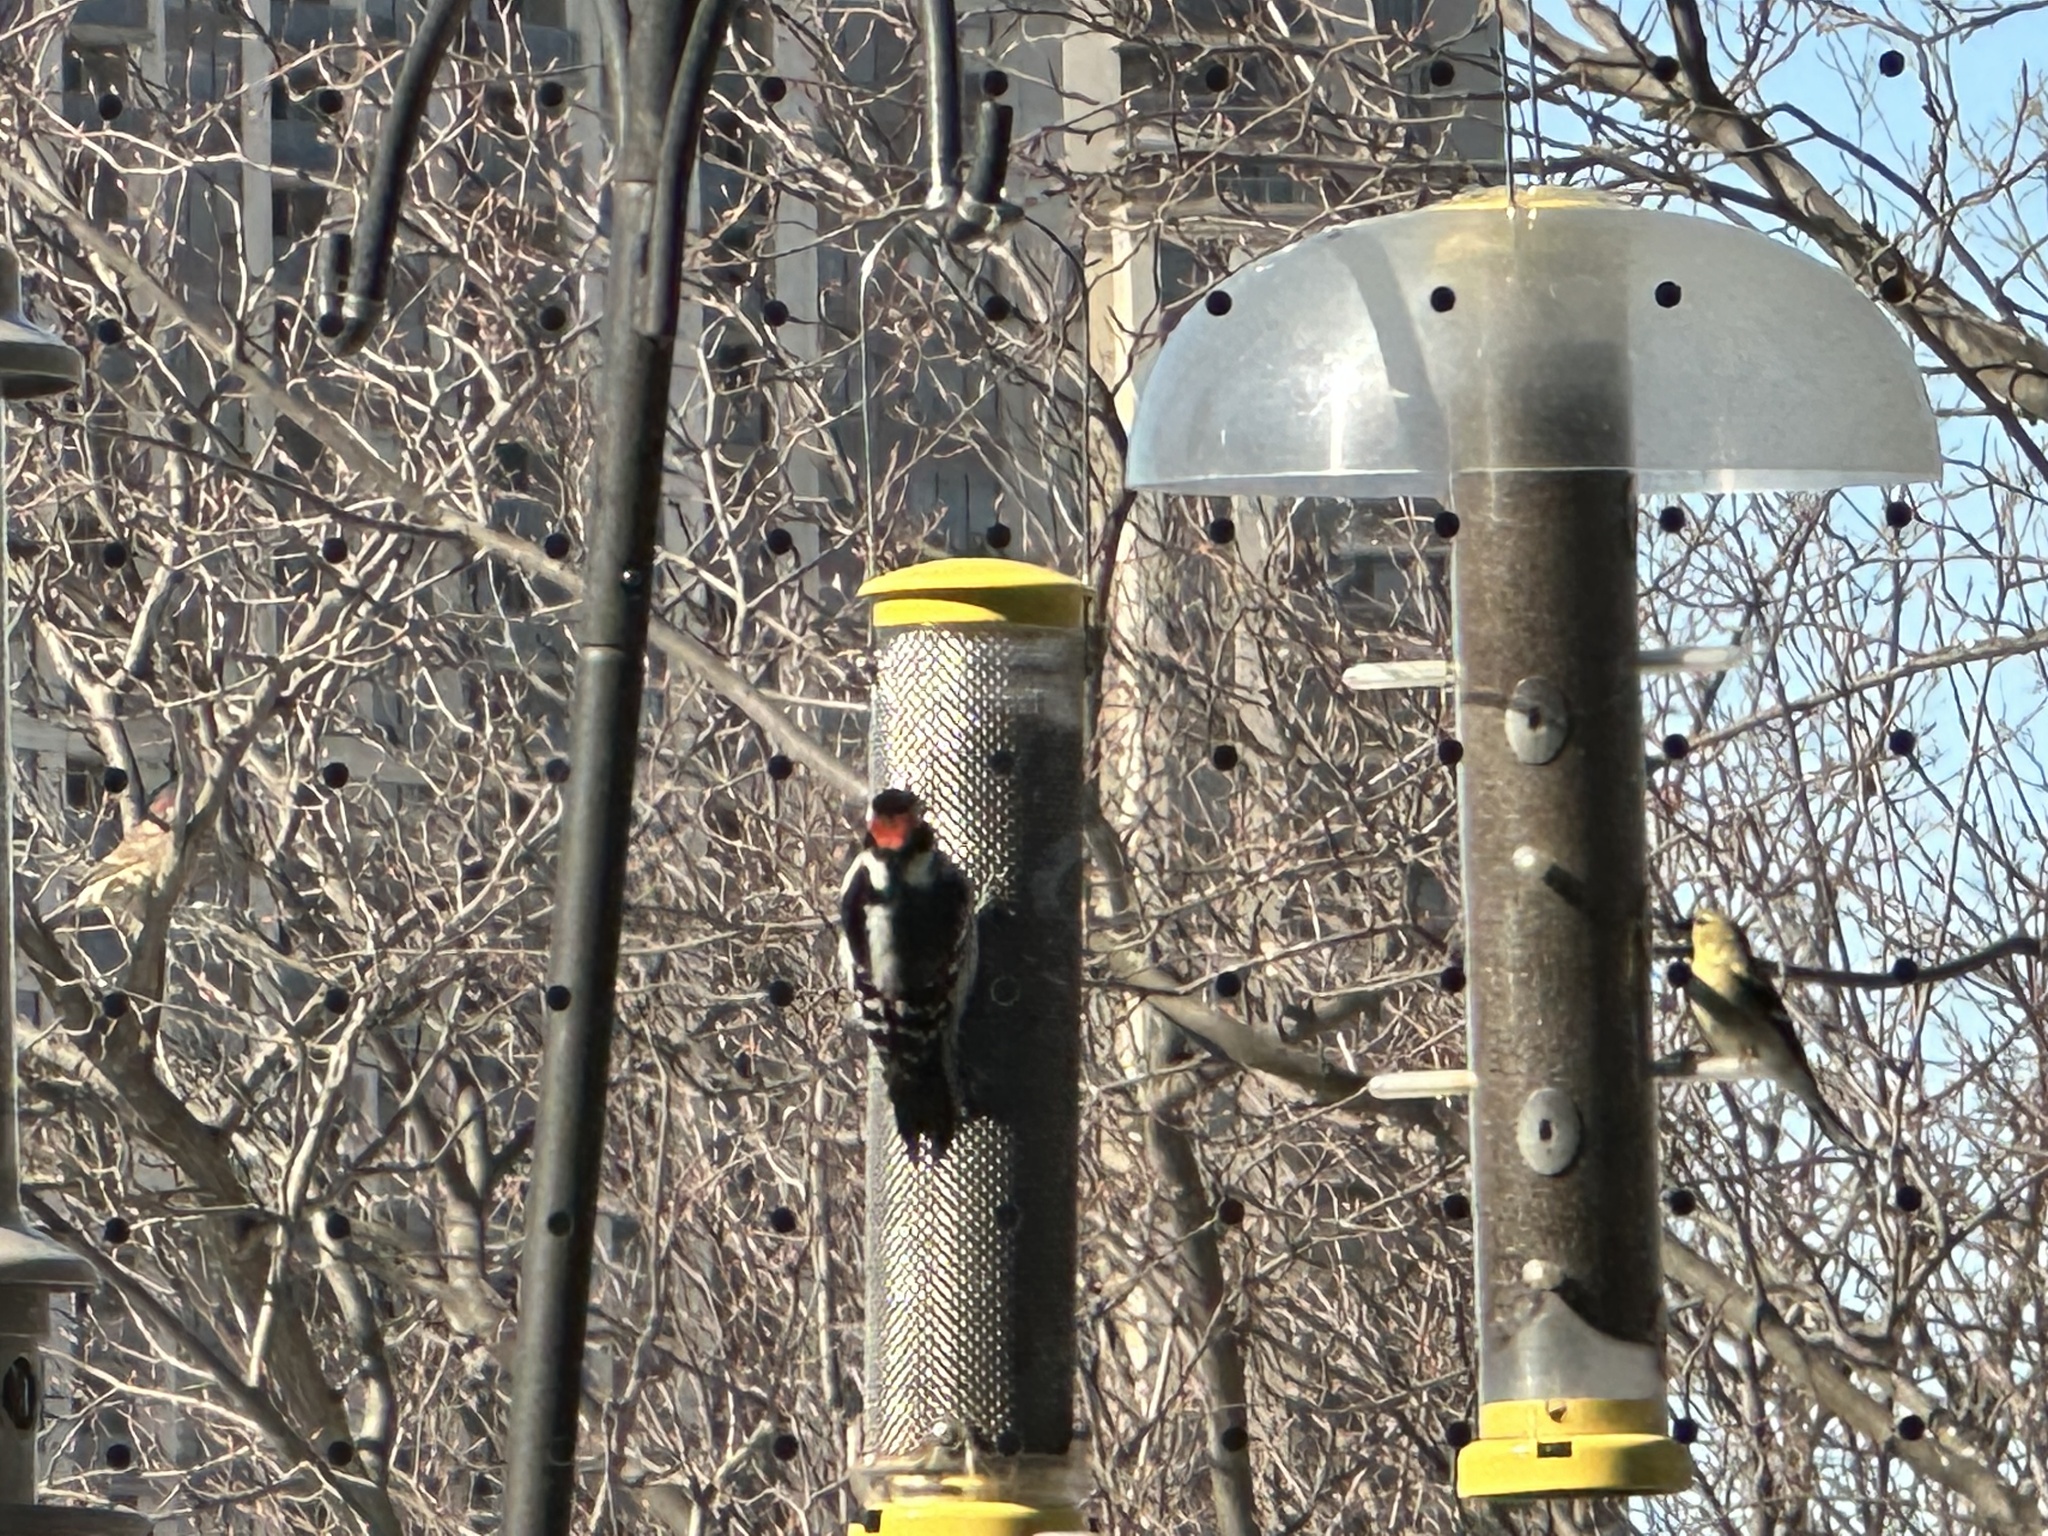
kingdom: Animalia
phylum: Chordata
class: Aves
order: Piciformes
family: Picidae
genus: Dryobates
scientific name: Dryobates pubescens
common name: Downy woodpecker
